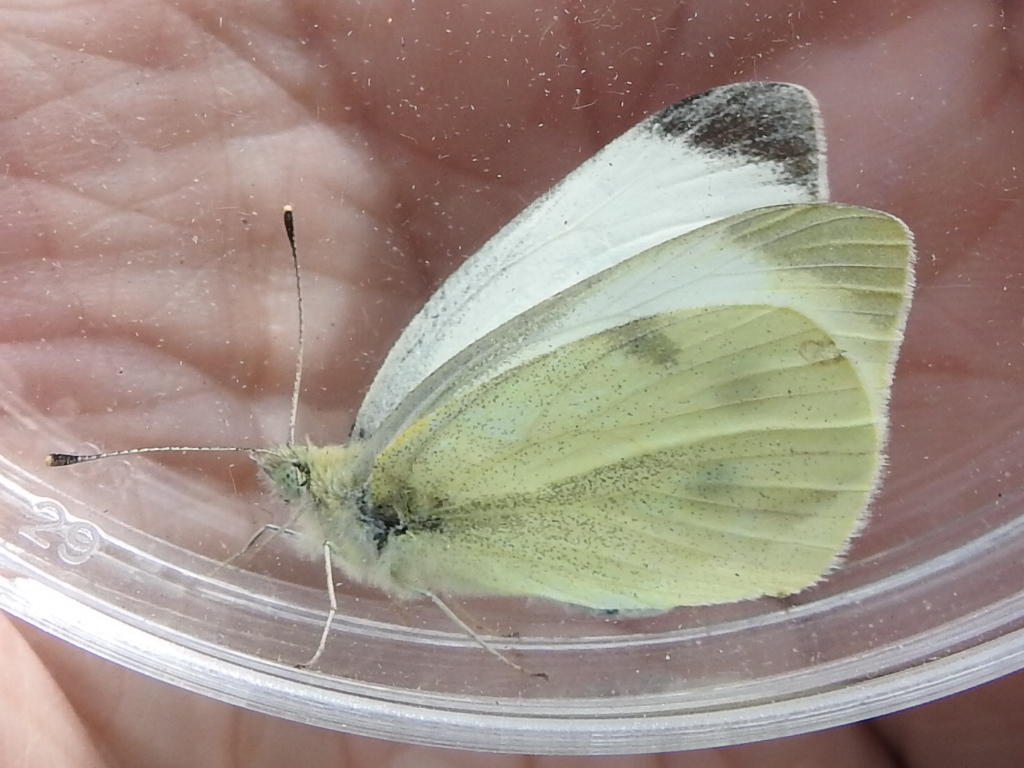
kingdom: Animalia
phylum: Arthropoda
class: Insecta
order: Lepidoptera
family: Pieridae
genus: Pieris
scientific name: Pieris rapae
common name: Small white
